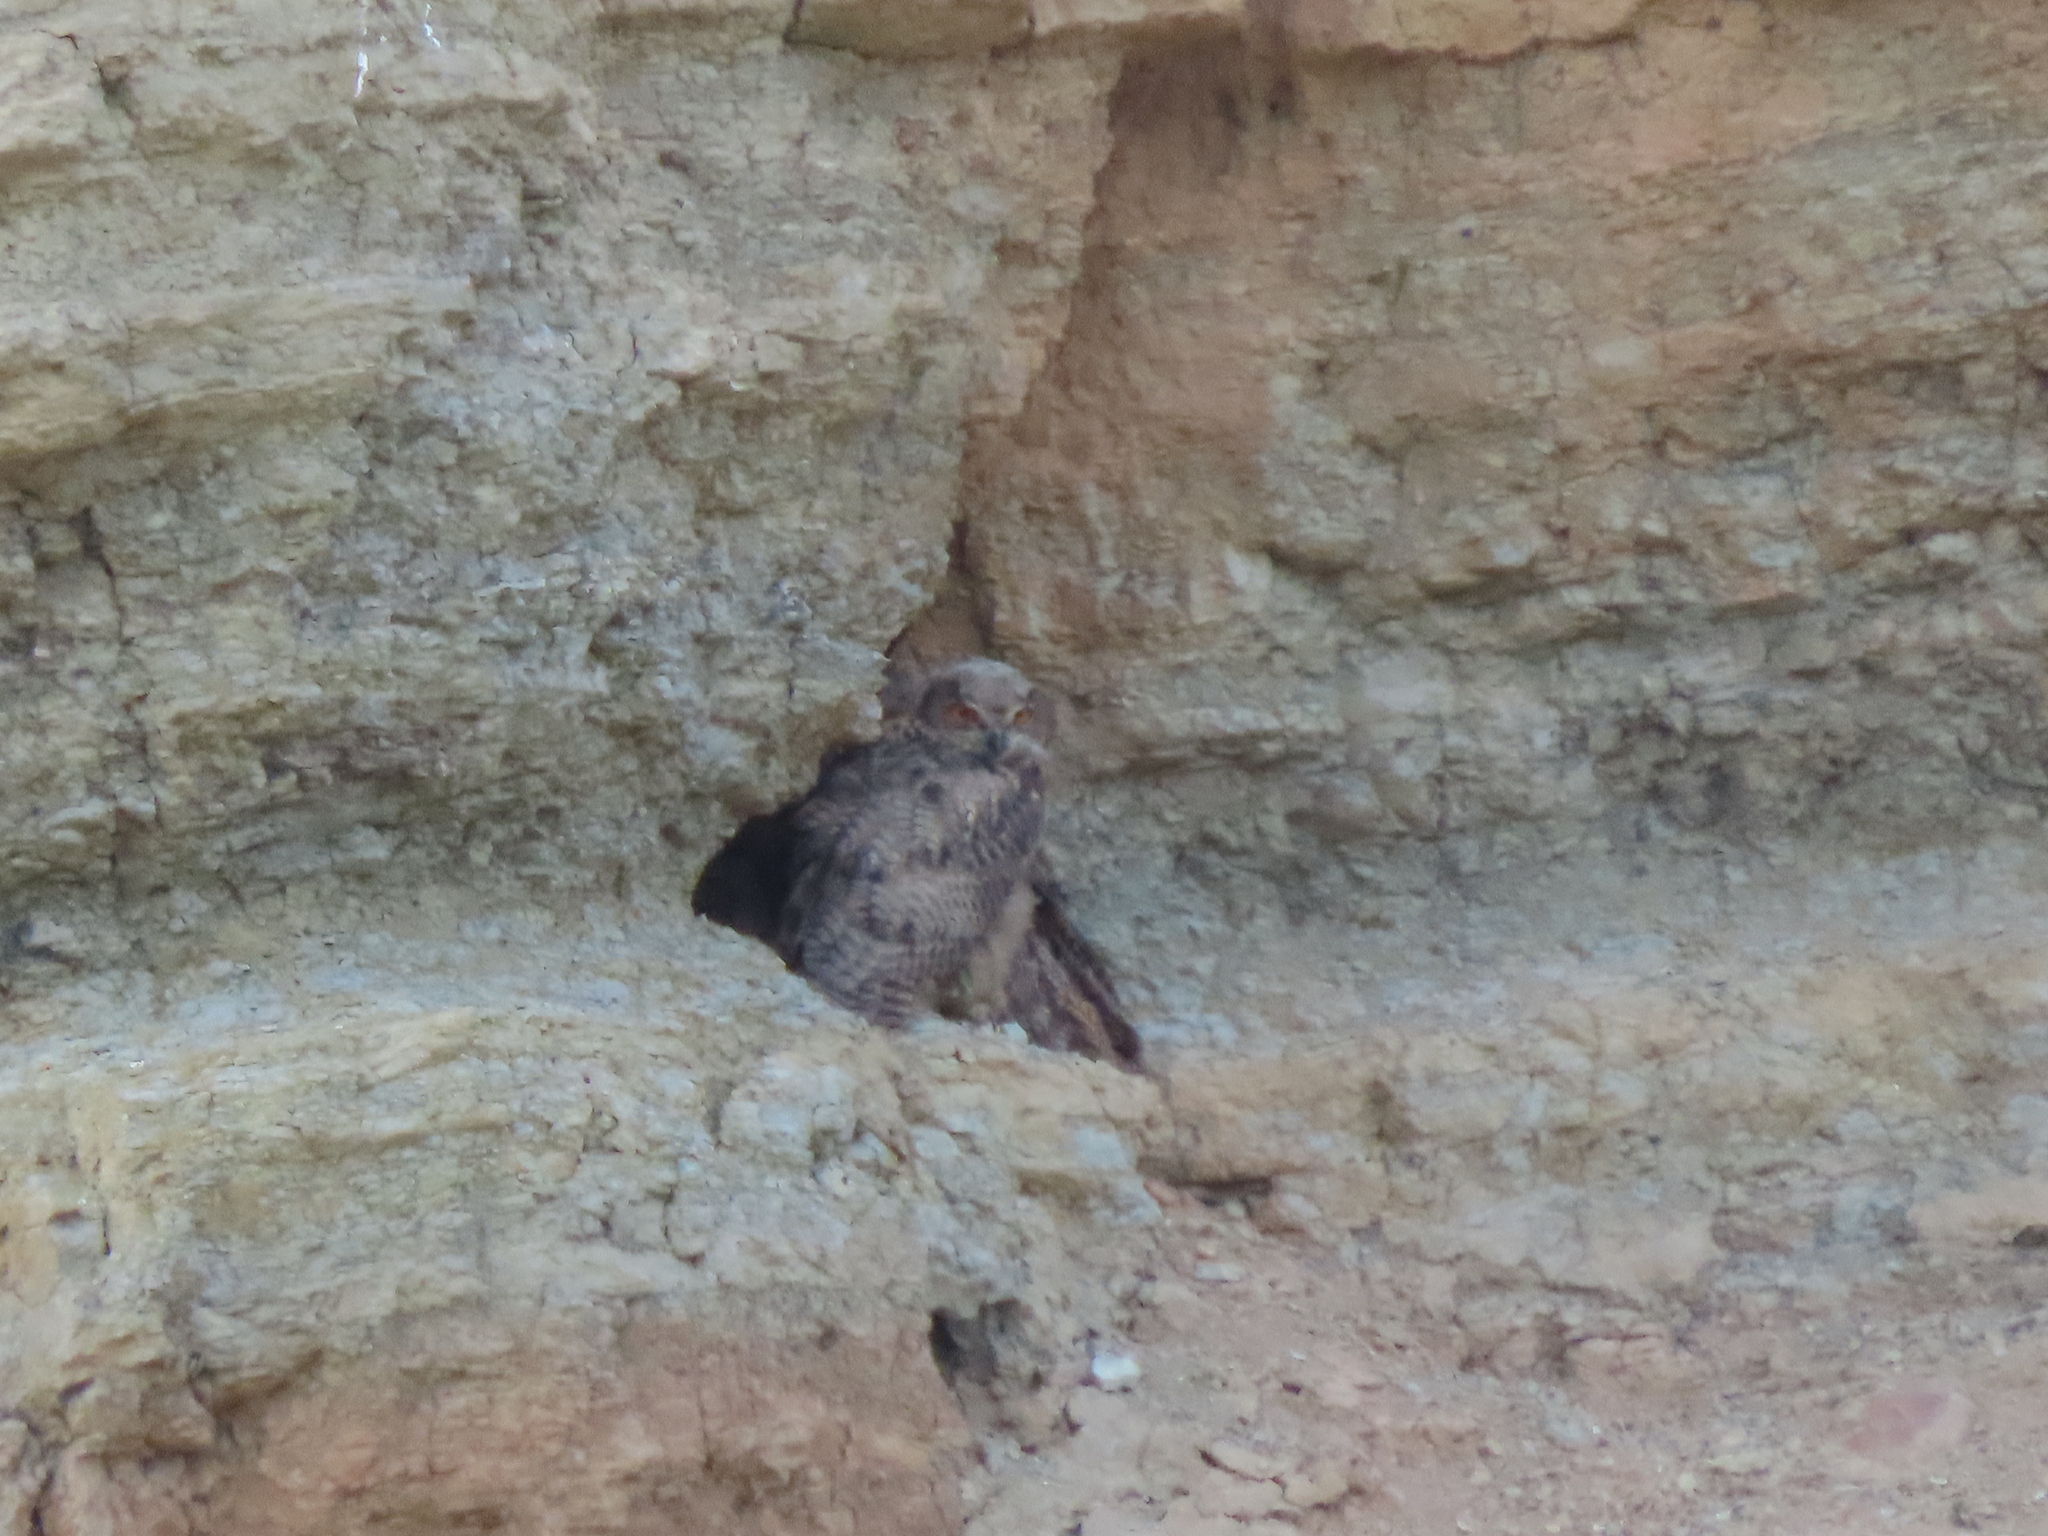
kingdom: Animalia
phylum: Chordata
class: Aves
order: Strigiformes
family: Strigidae
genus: Bubo
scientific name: Bubo bubo
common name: Eurasian eagle-owl
